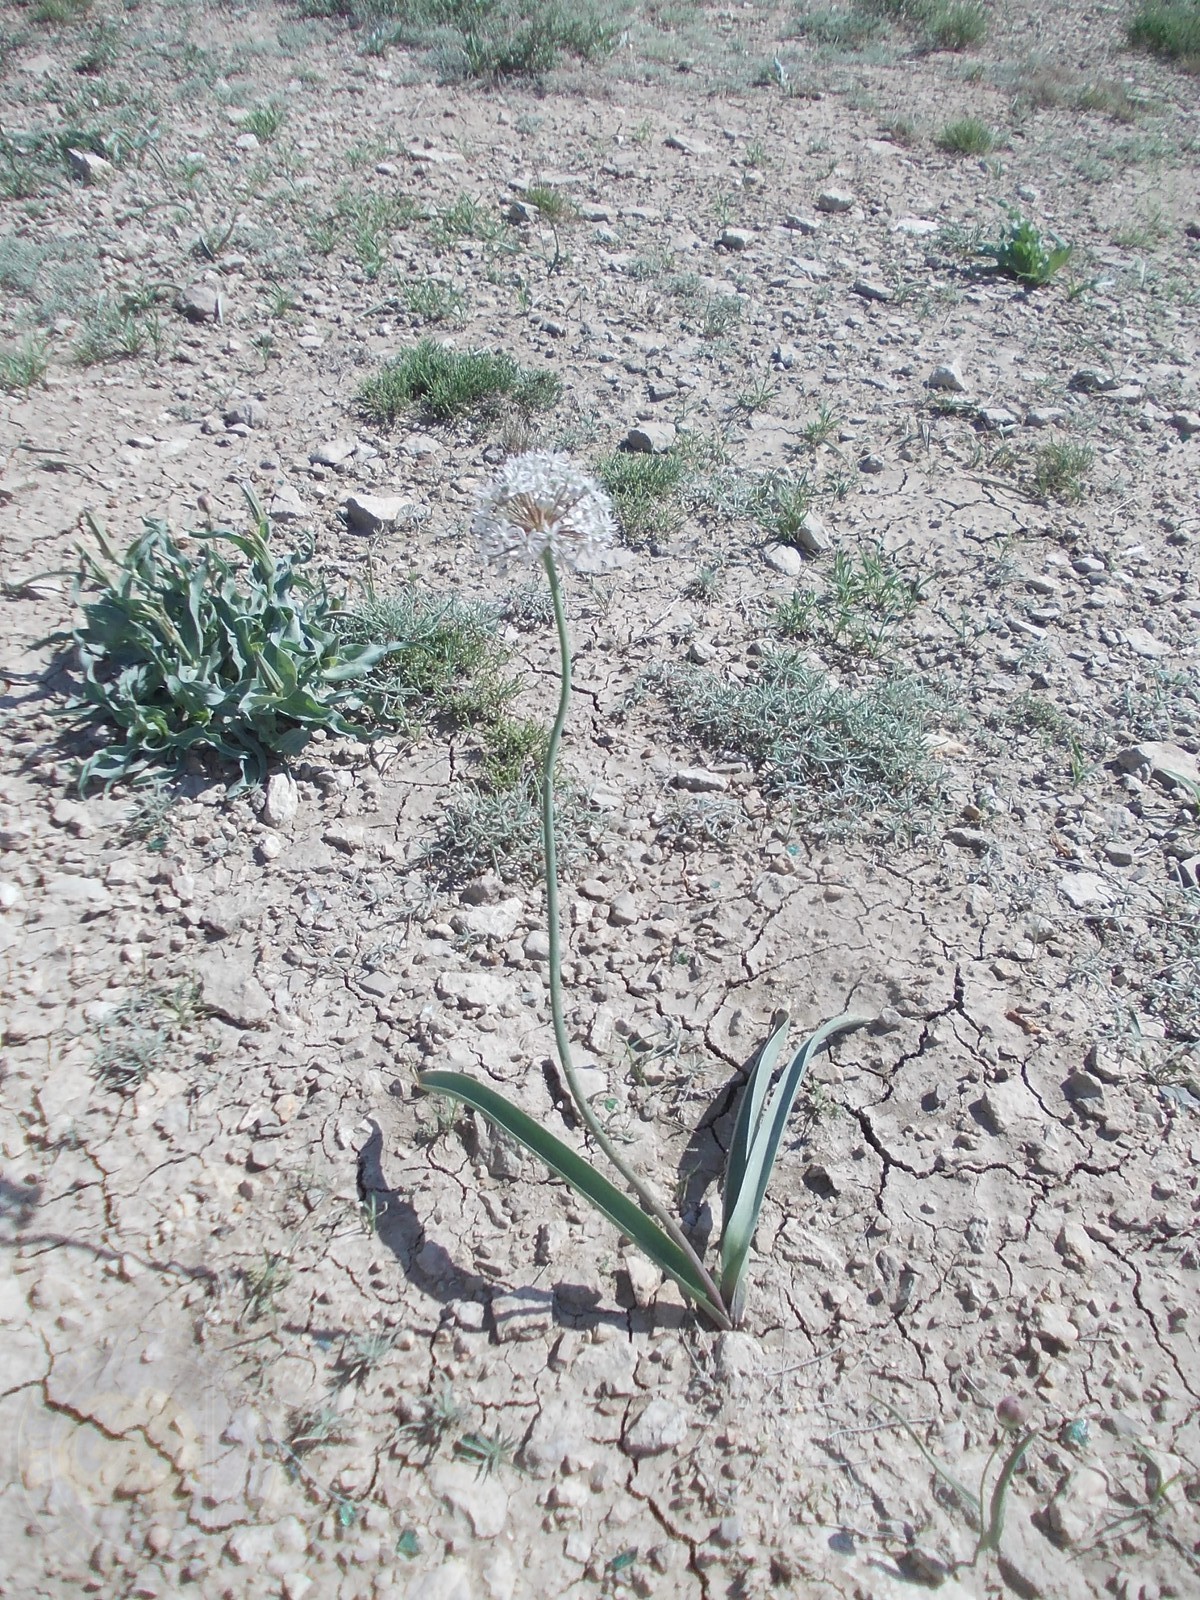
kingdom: Plantae
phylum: Tracheophyta
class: Liliopsida
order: Asparagales
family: Amaryllidaceae
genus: Allium
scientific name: Allium tulipifolium
